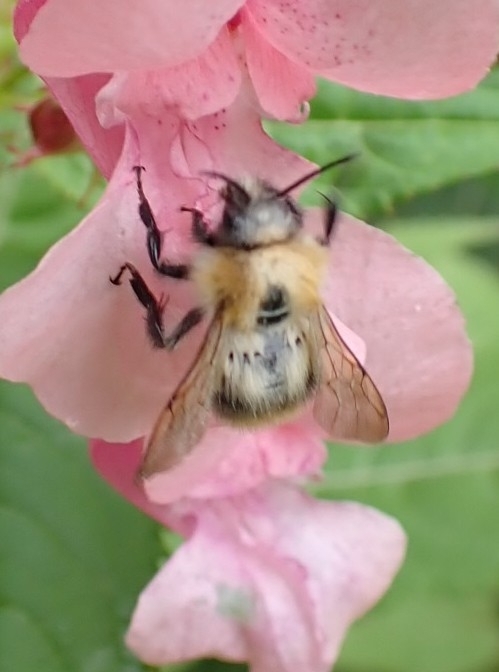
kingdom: Animalia
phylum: Arthropoda
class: Insecta
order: Hymenoptera
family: Apidae
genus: Bombus
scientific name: Bombus pascuorum
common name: Common carder bee
